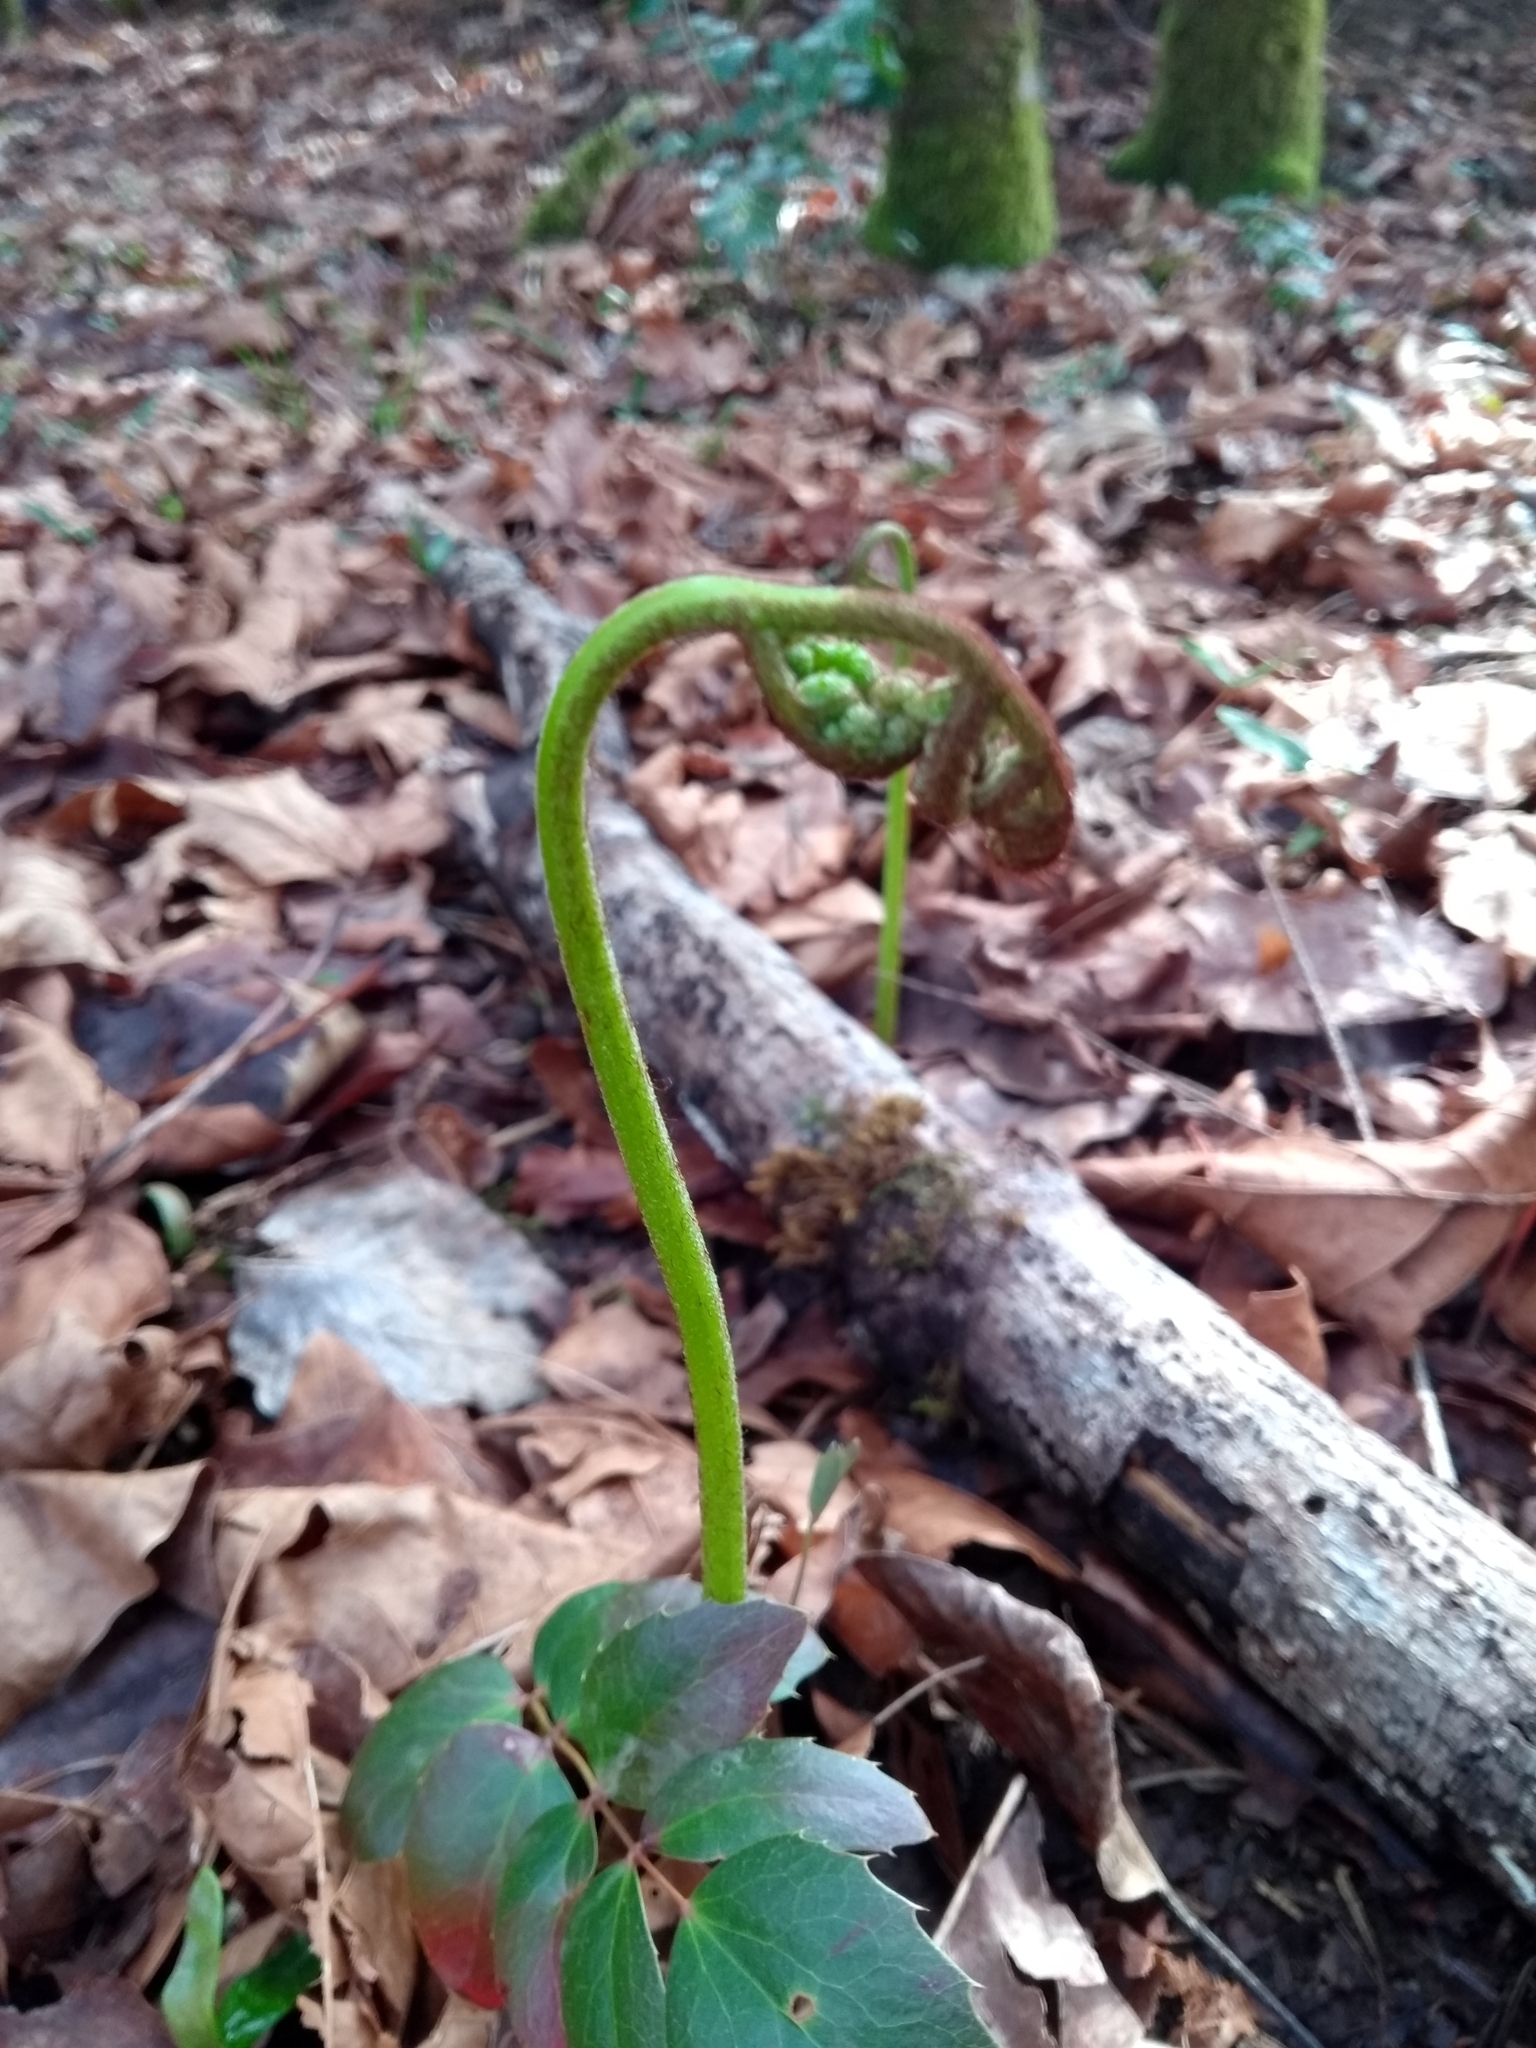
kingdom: Plantae
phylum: Tracheophyta
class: Polypodiopsida
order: Polypodiales
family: Dennstaedtiaceae
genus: Pteridium
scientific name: Pteridium aquilinum
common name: Bracken
